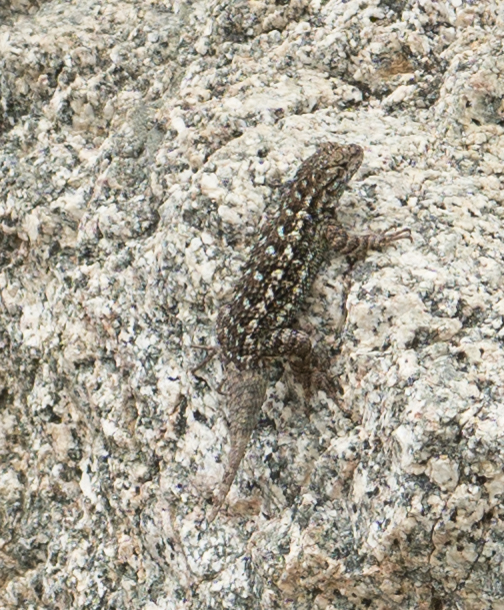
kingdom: Animalia
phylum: Chordata
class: Squamata
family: Phrynosomatidae
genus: Sceloporus
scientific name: Sceloporus occidentalis
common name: Western fence lizard
